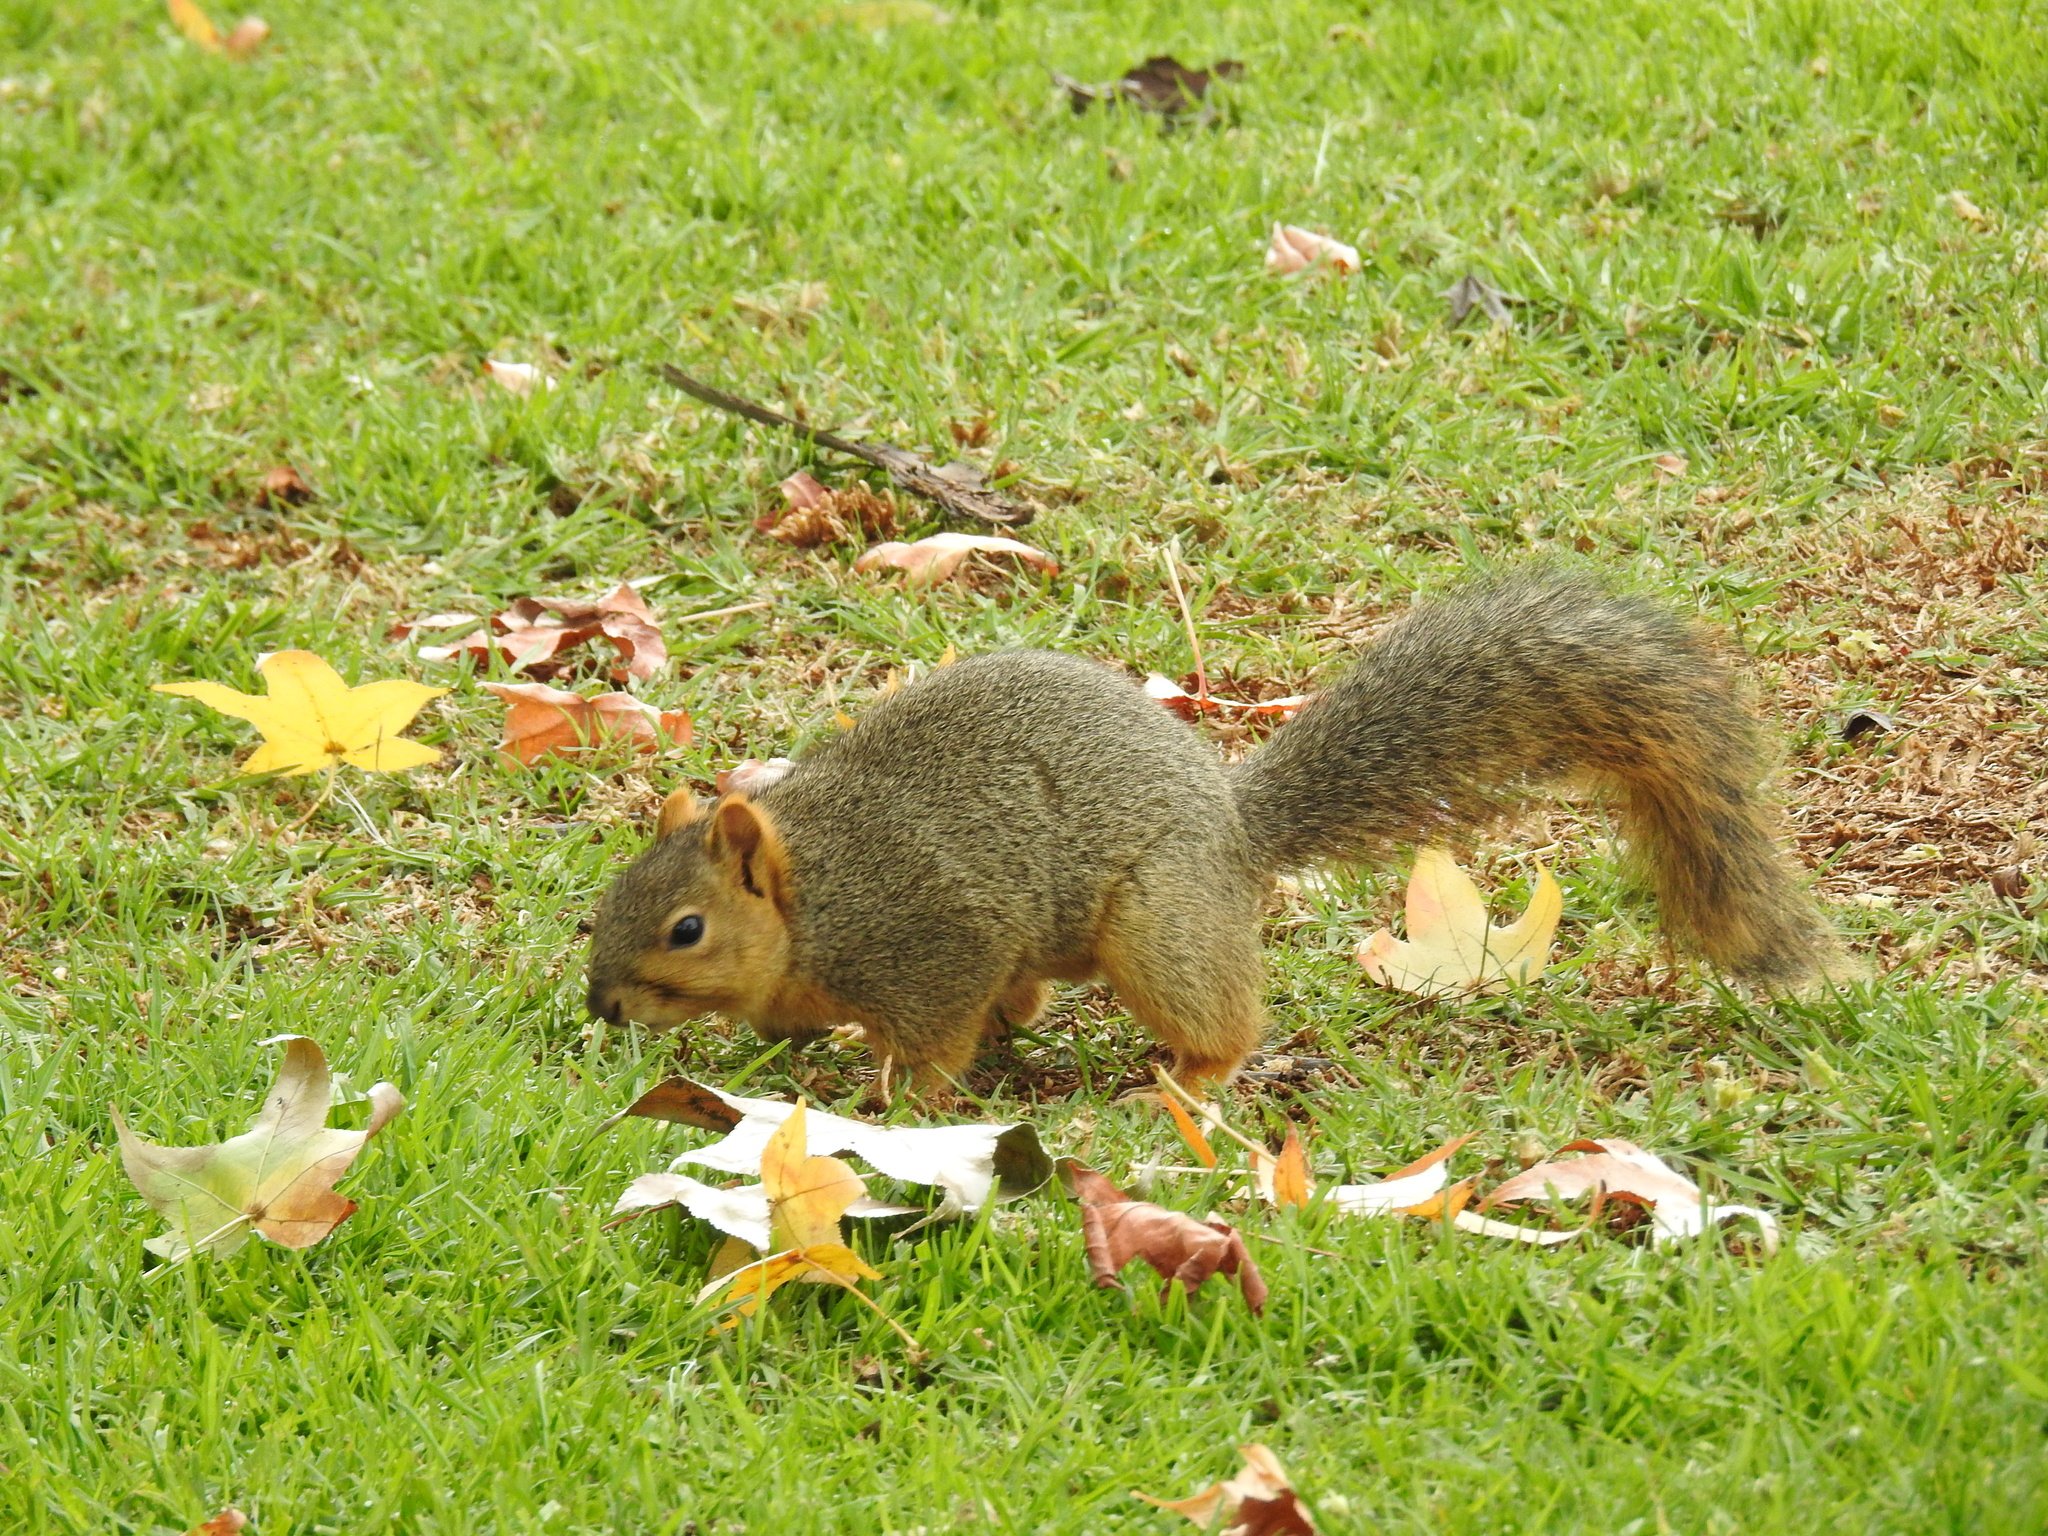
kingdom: Animalia
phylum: Chordata
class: Mammalia
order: Rodentia
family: Sciuridae
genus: Sciurus
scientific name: Sciurus niger
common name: Fox squirrel
